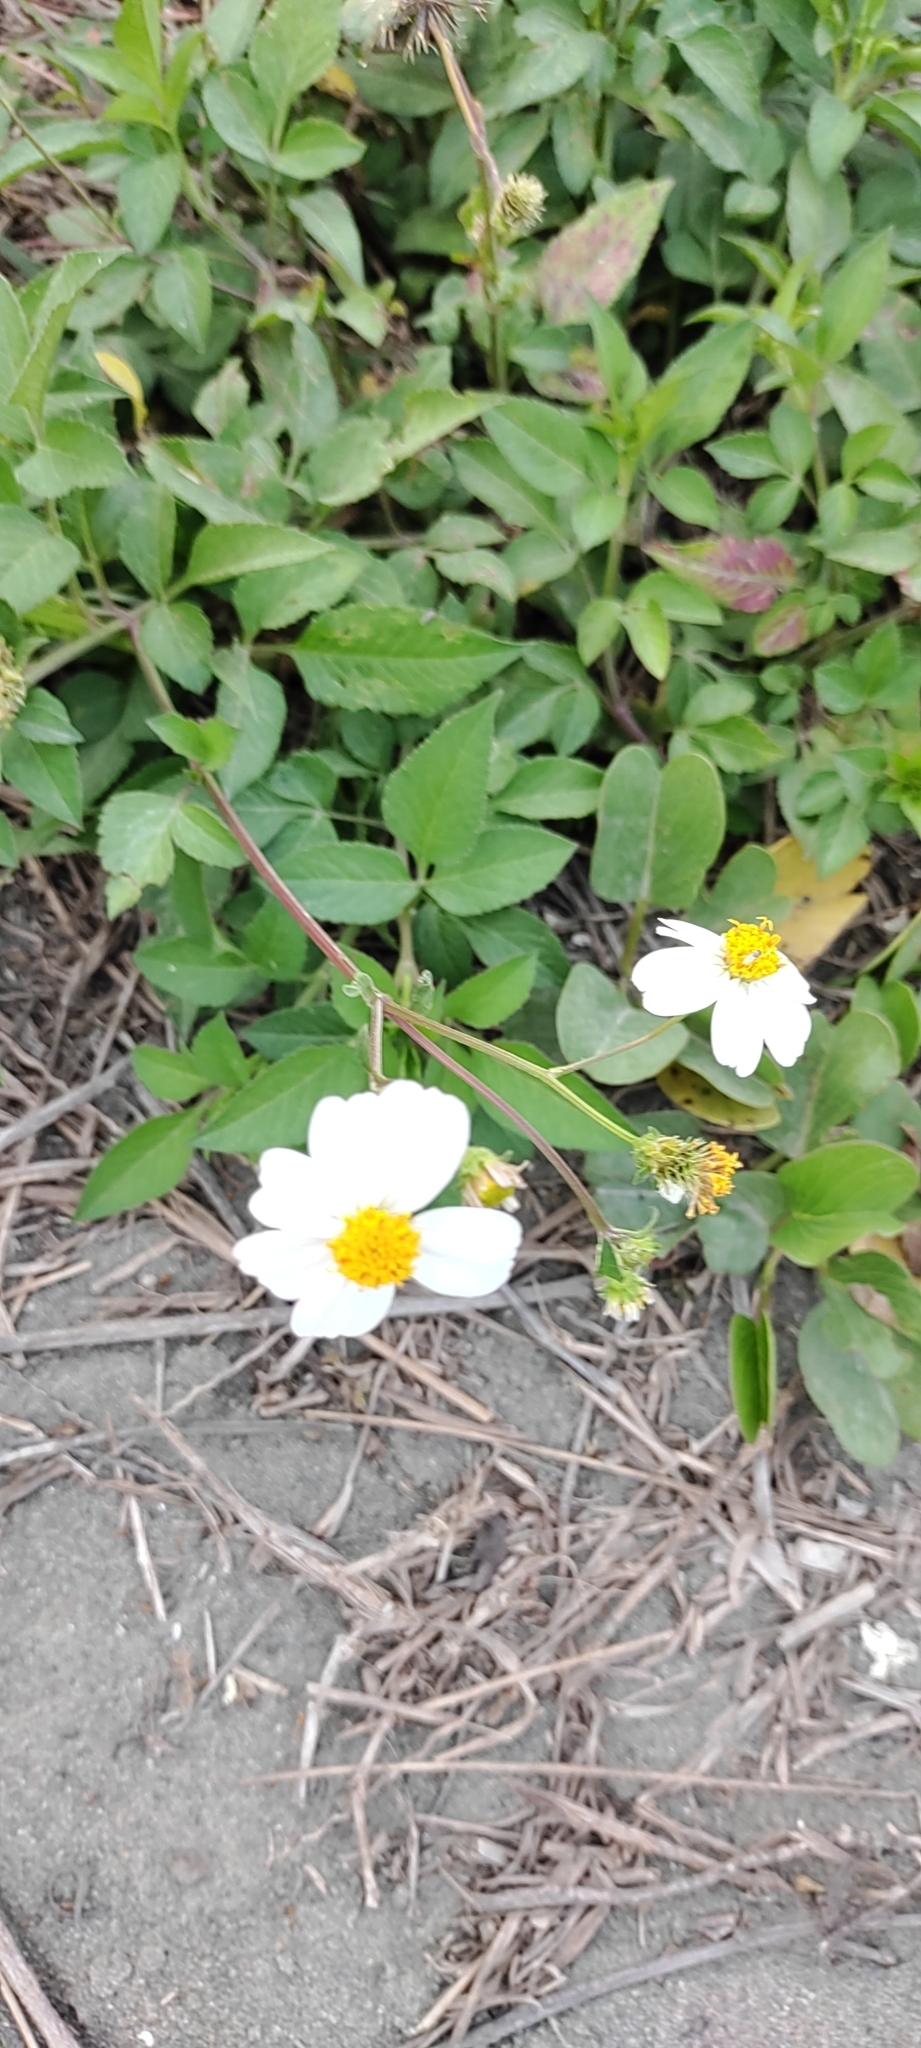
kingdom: Plantae
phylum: Tracheophyta
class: Magnoliopsida
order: Asterales
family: Asteraceae
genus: Bidens
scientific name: Bidens alba
